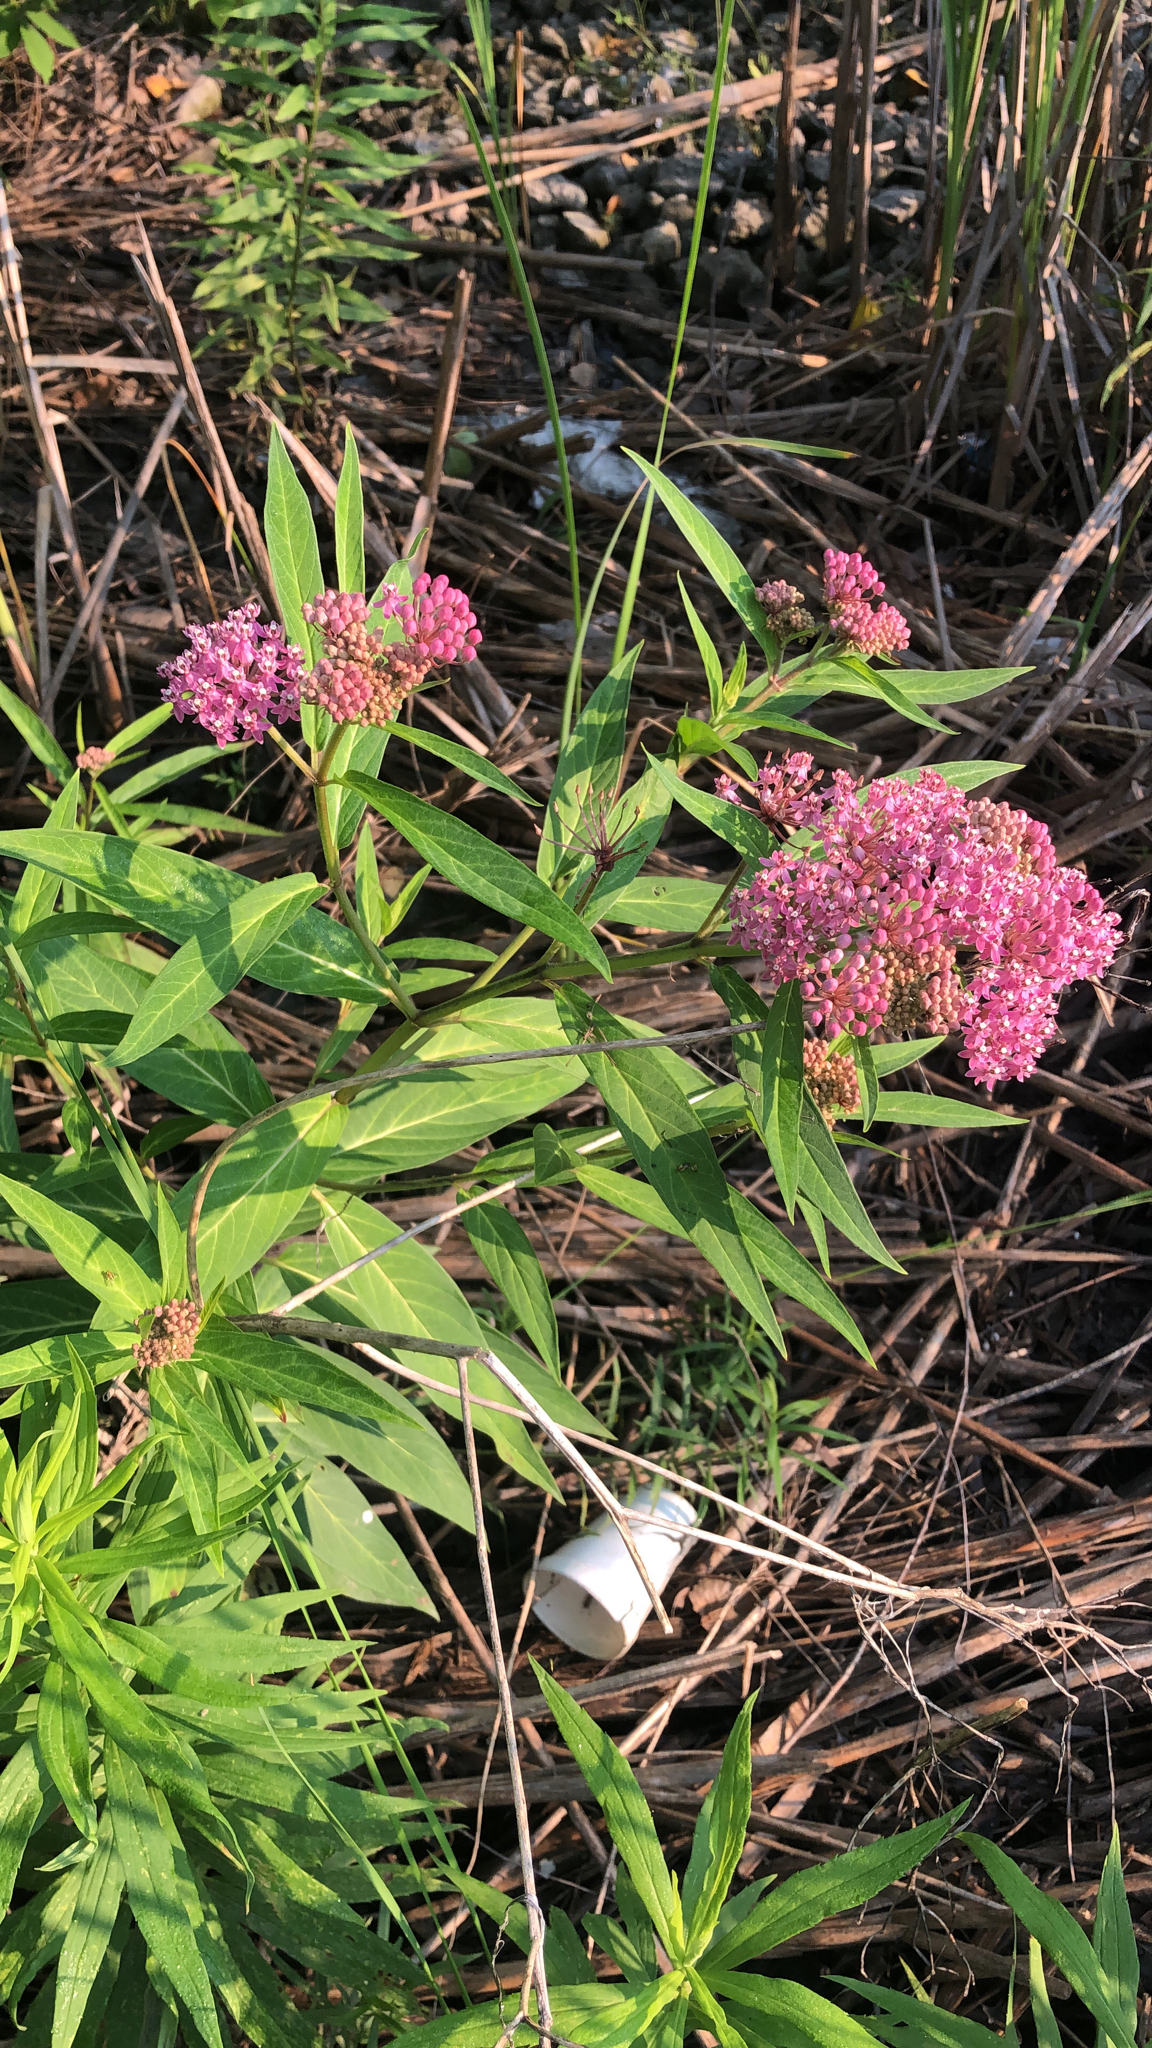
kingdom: Plantae
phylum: Tracheophyta
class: Magnoliopsida
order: Gentianales
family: Apocynaceae
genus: Asclepias
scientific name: Asclepias incarnata
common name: Swamp milkweed
